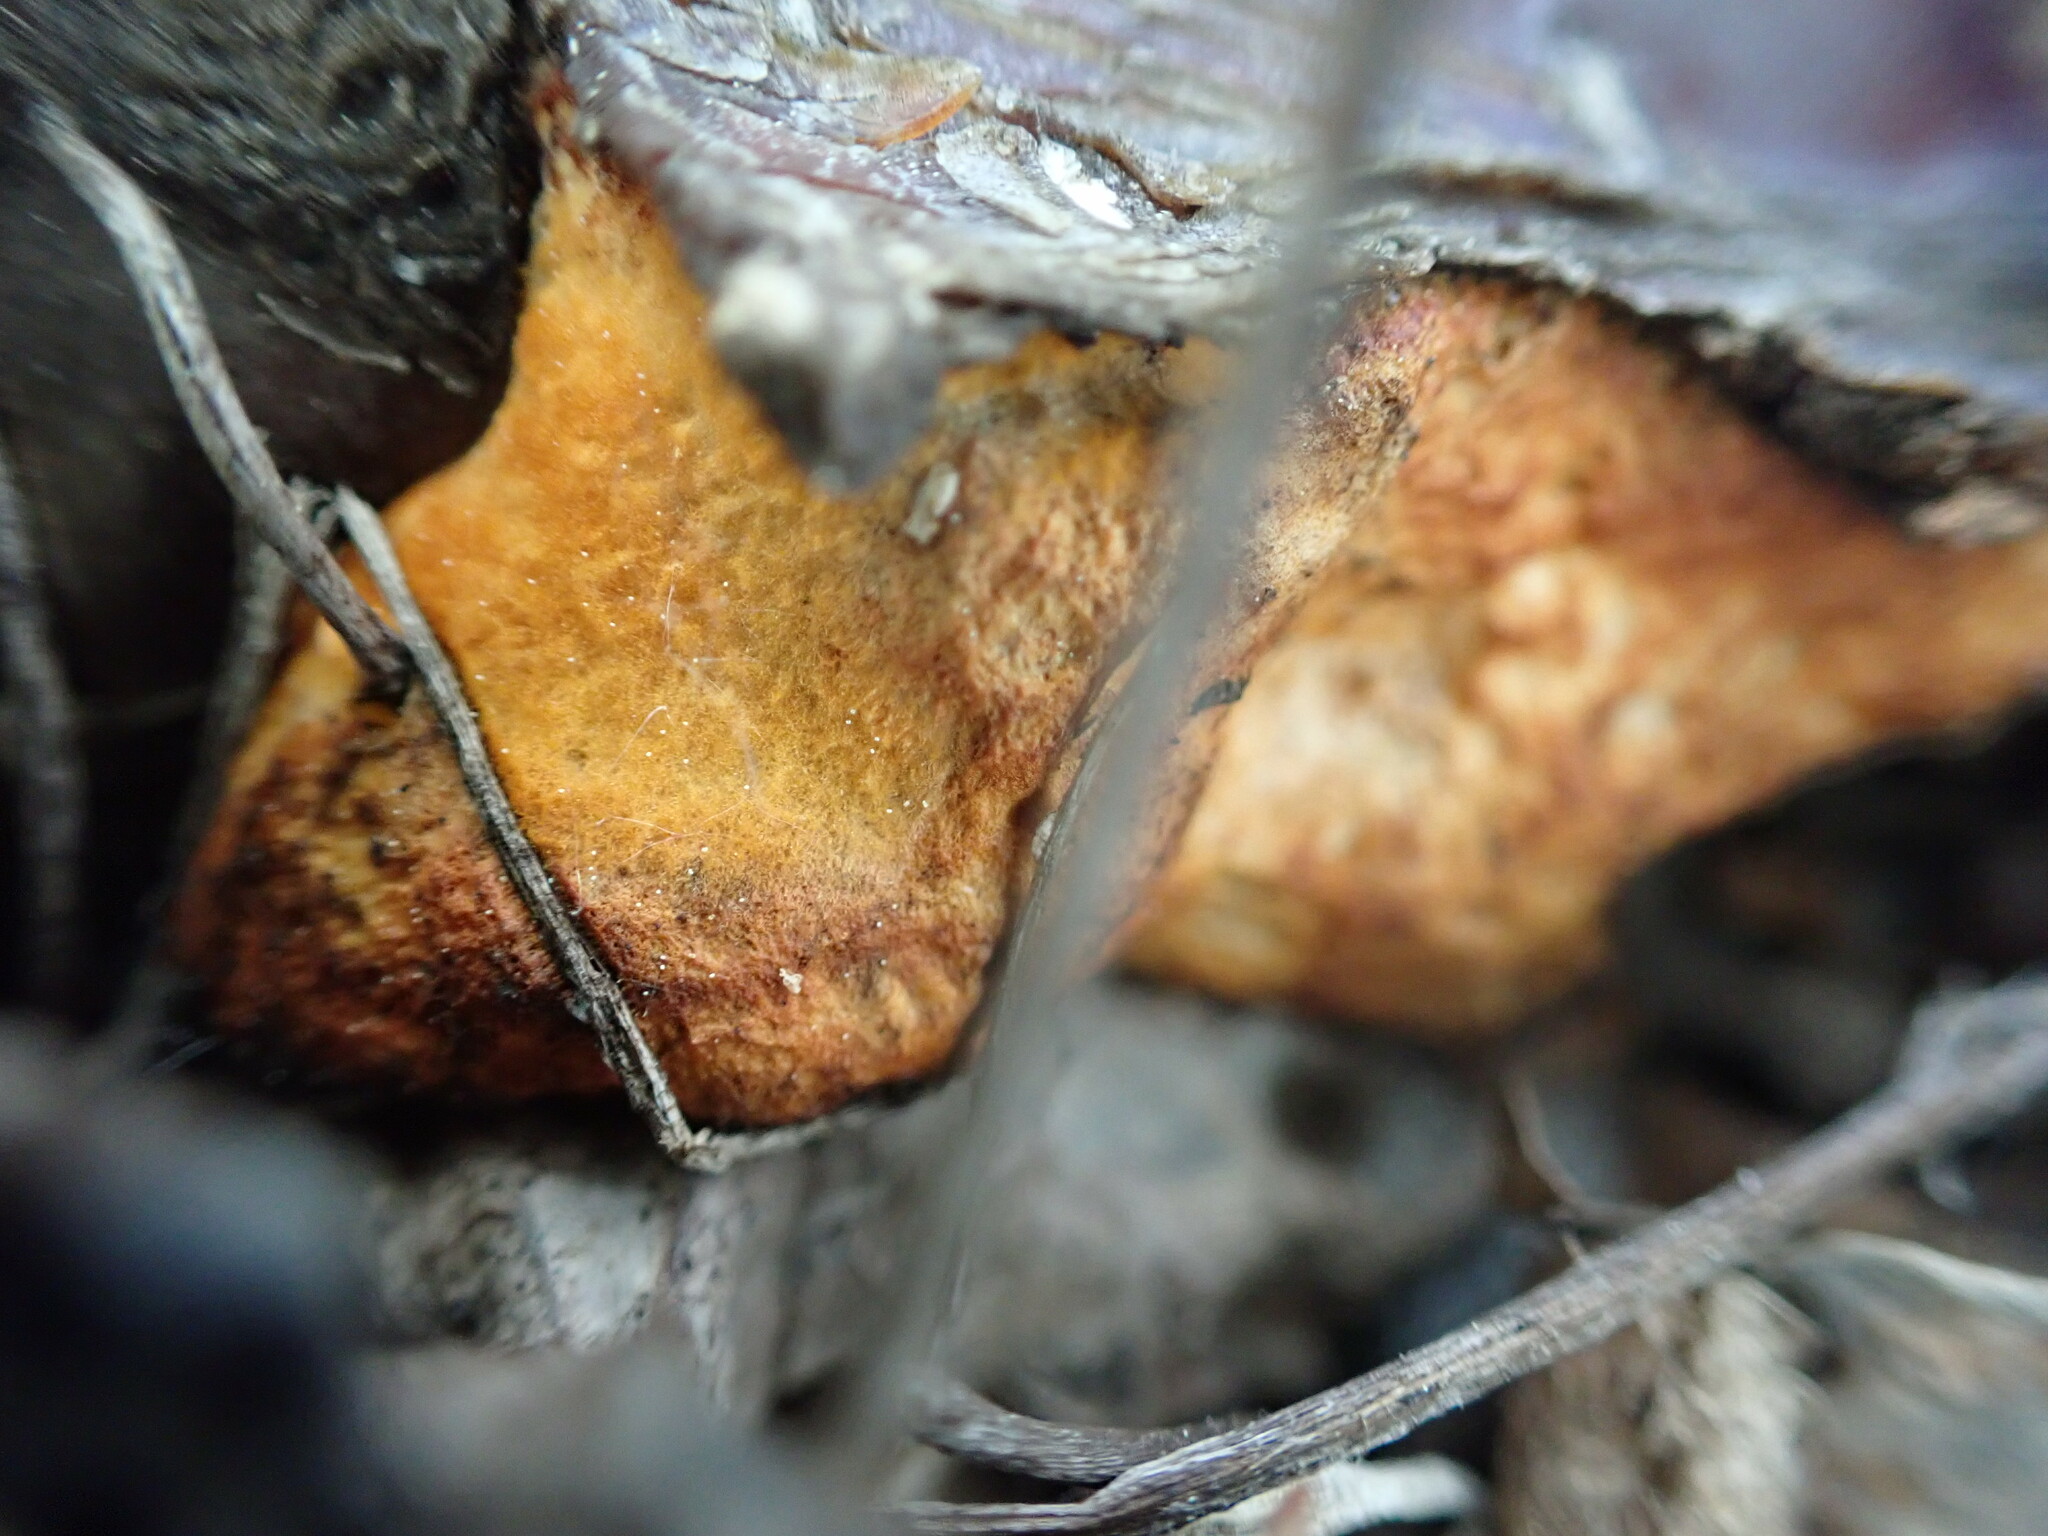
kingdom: Fungi
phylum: Basidiomycota
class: Agaricomycetes
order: Polyporales
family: Polyporaceae
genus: Trametes
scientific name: Trametes cinnabarina
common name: Northern cinnabar polypore
